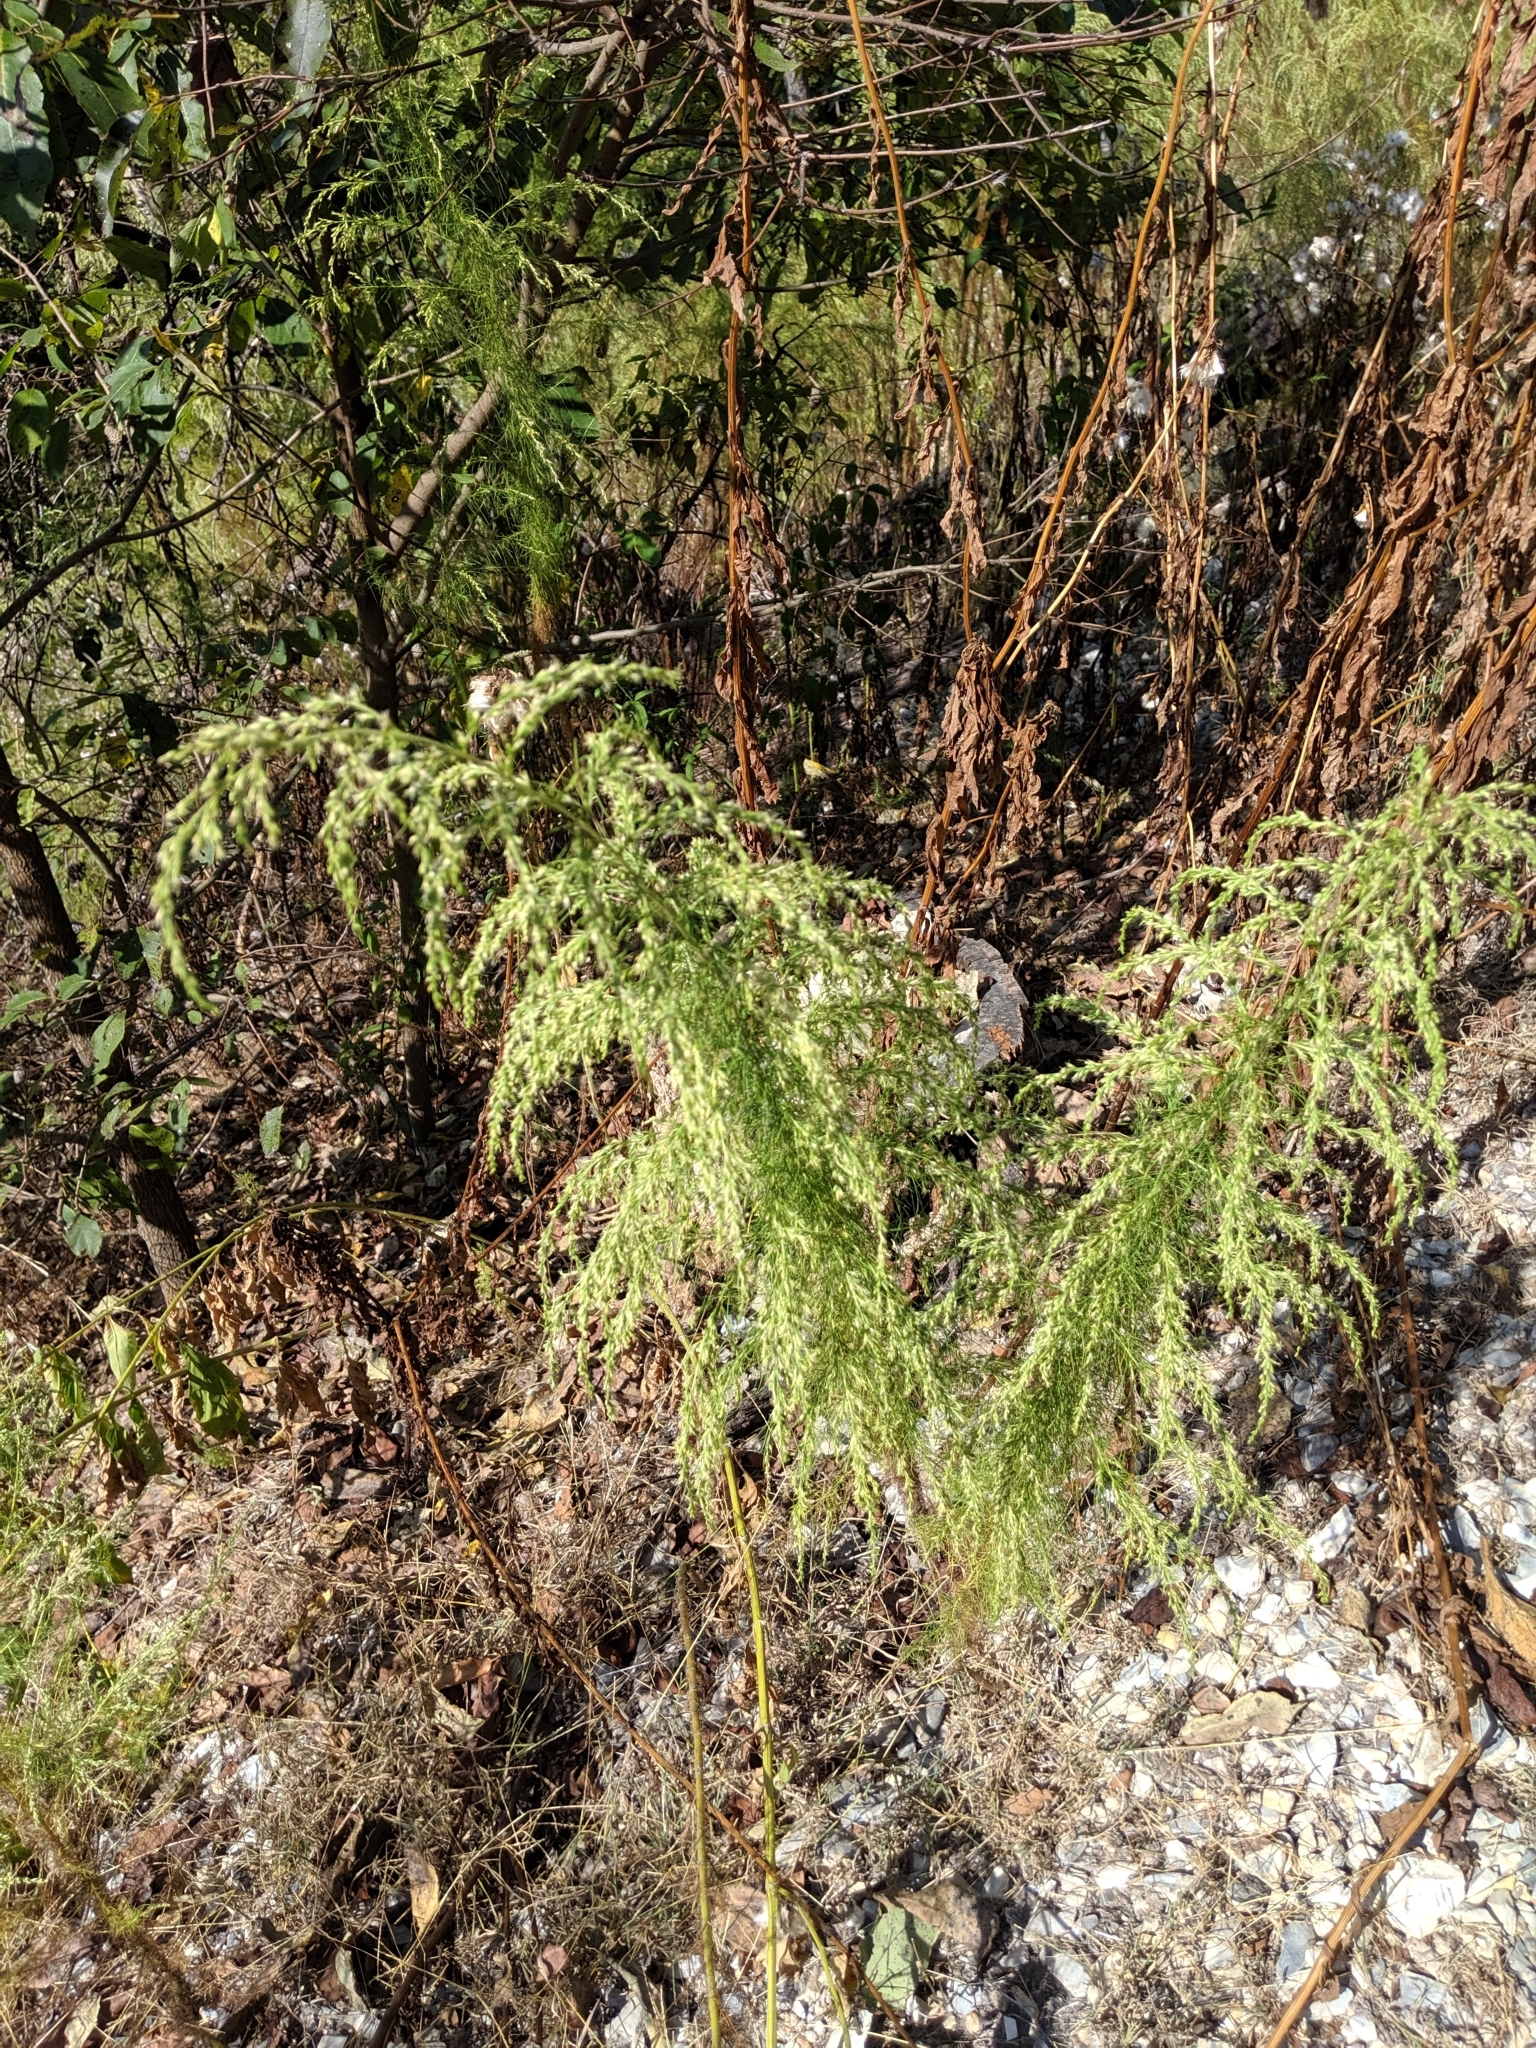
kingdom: Plantae
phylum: Tracheophyta
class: Magnoliopsida
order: Asterales
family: Asteraceae
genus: Eupatorium
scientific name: Eupatorium capillifolium
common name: Dog-fennel
